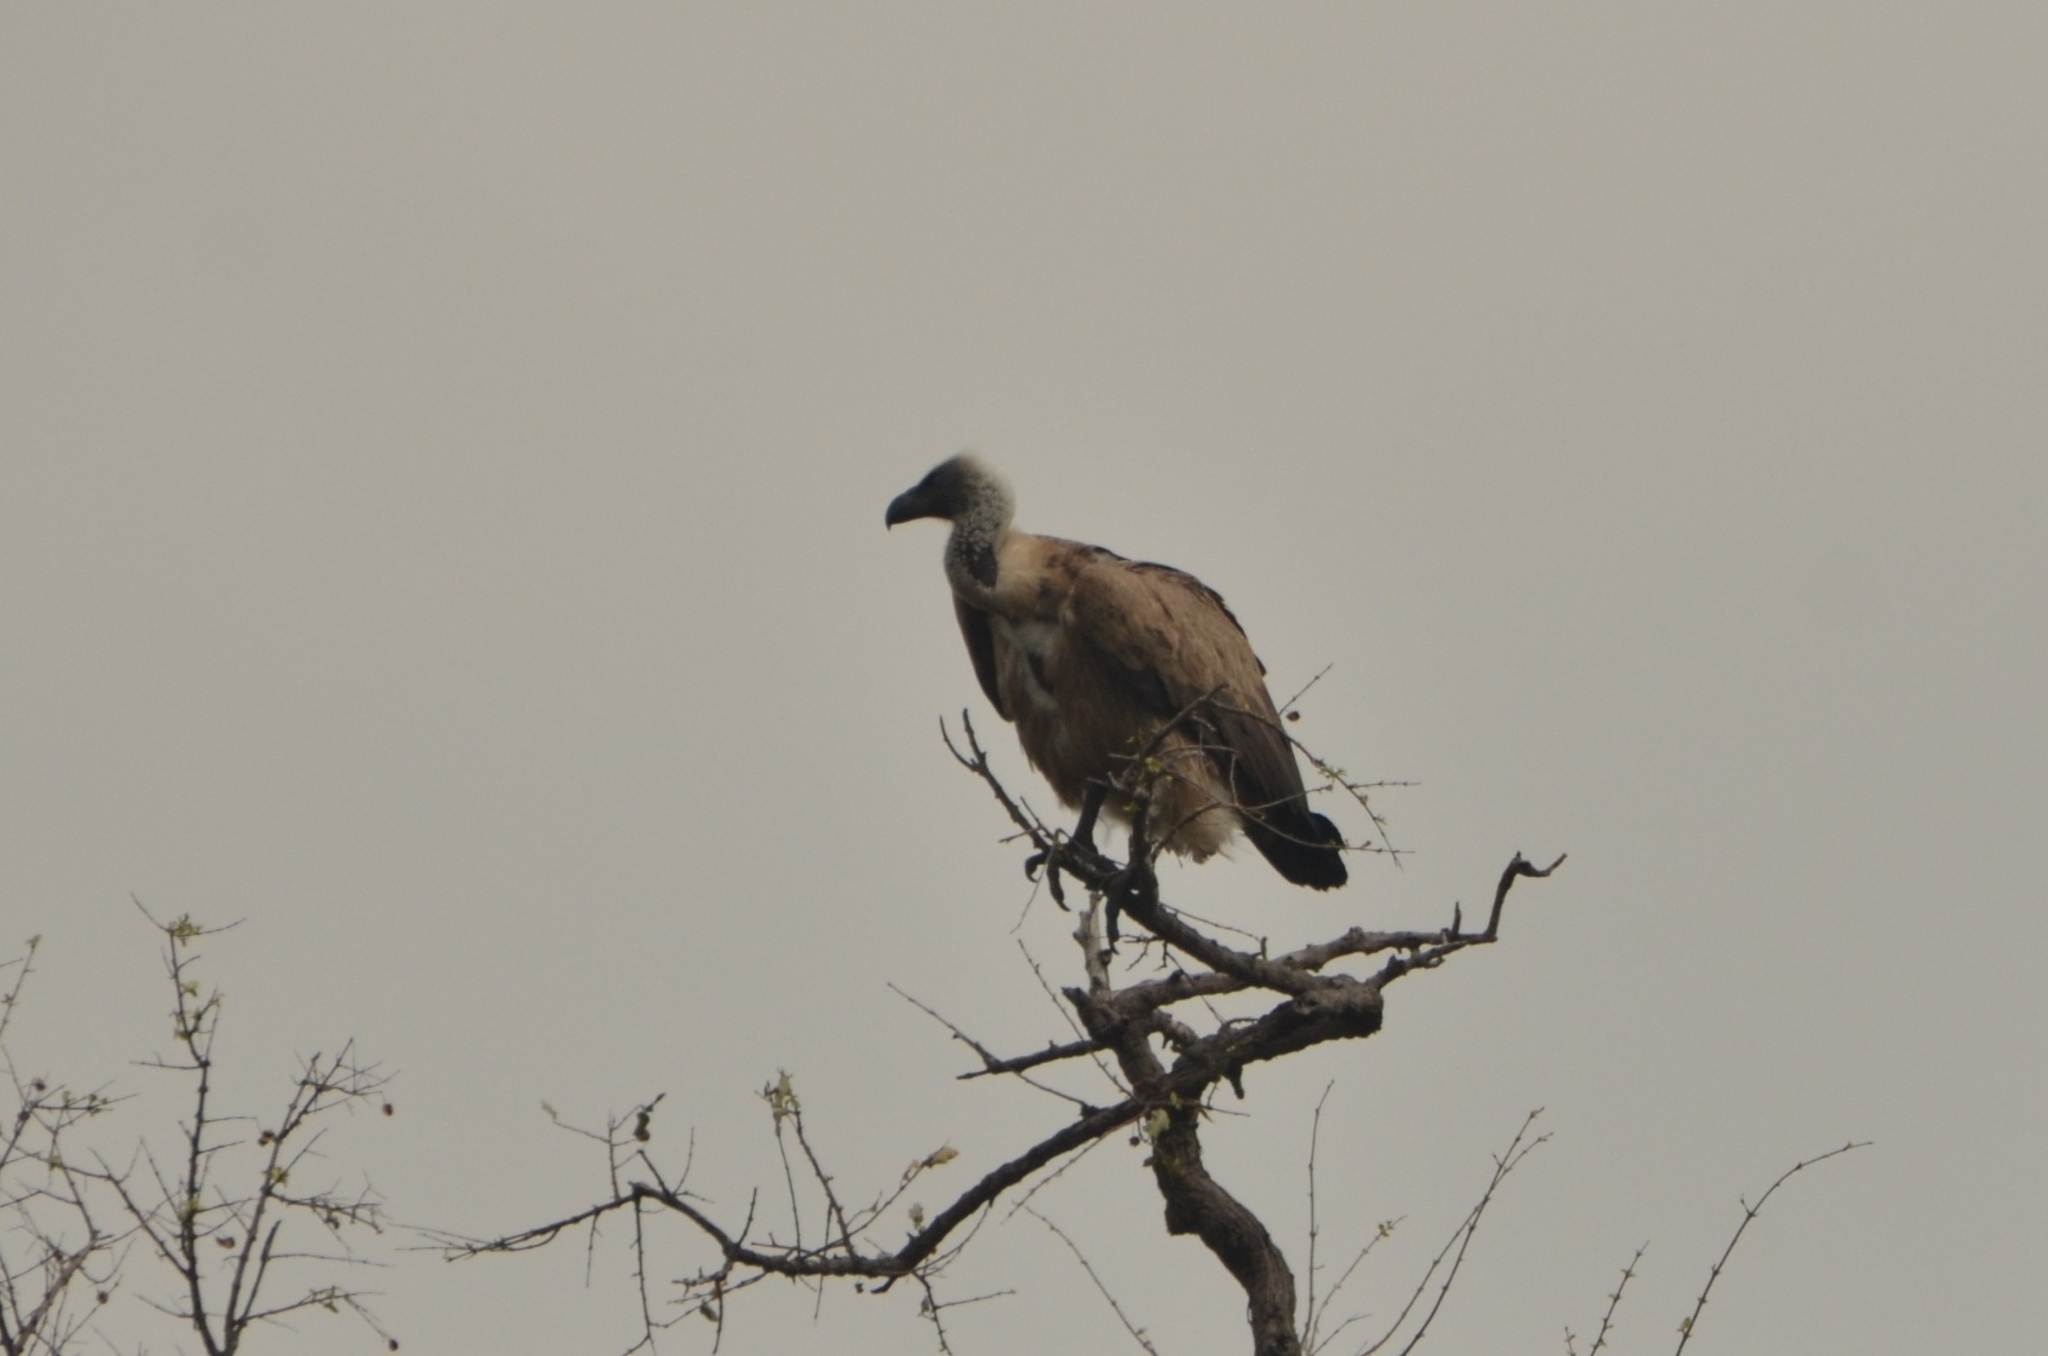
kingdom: Animalia
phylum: Chordata
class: Aves
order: Accipitriformes
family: Accipitridae
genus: Gyps
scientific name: Gyps africanus
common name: White-backed vulture
